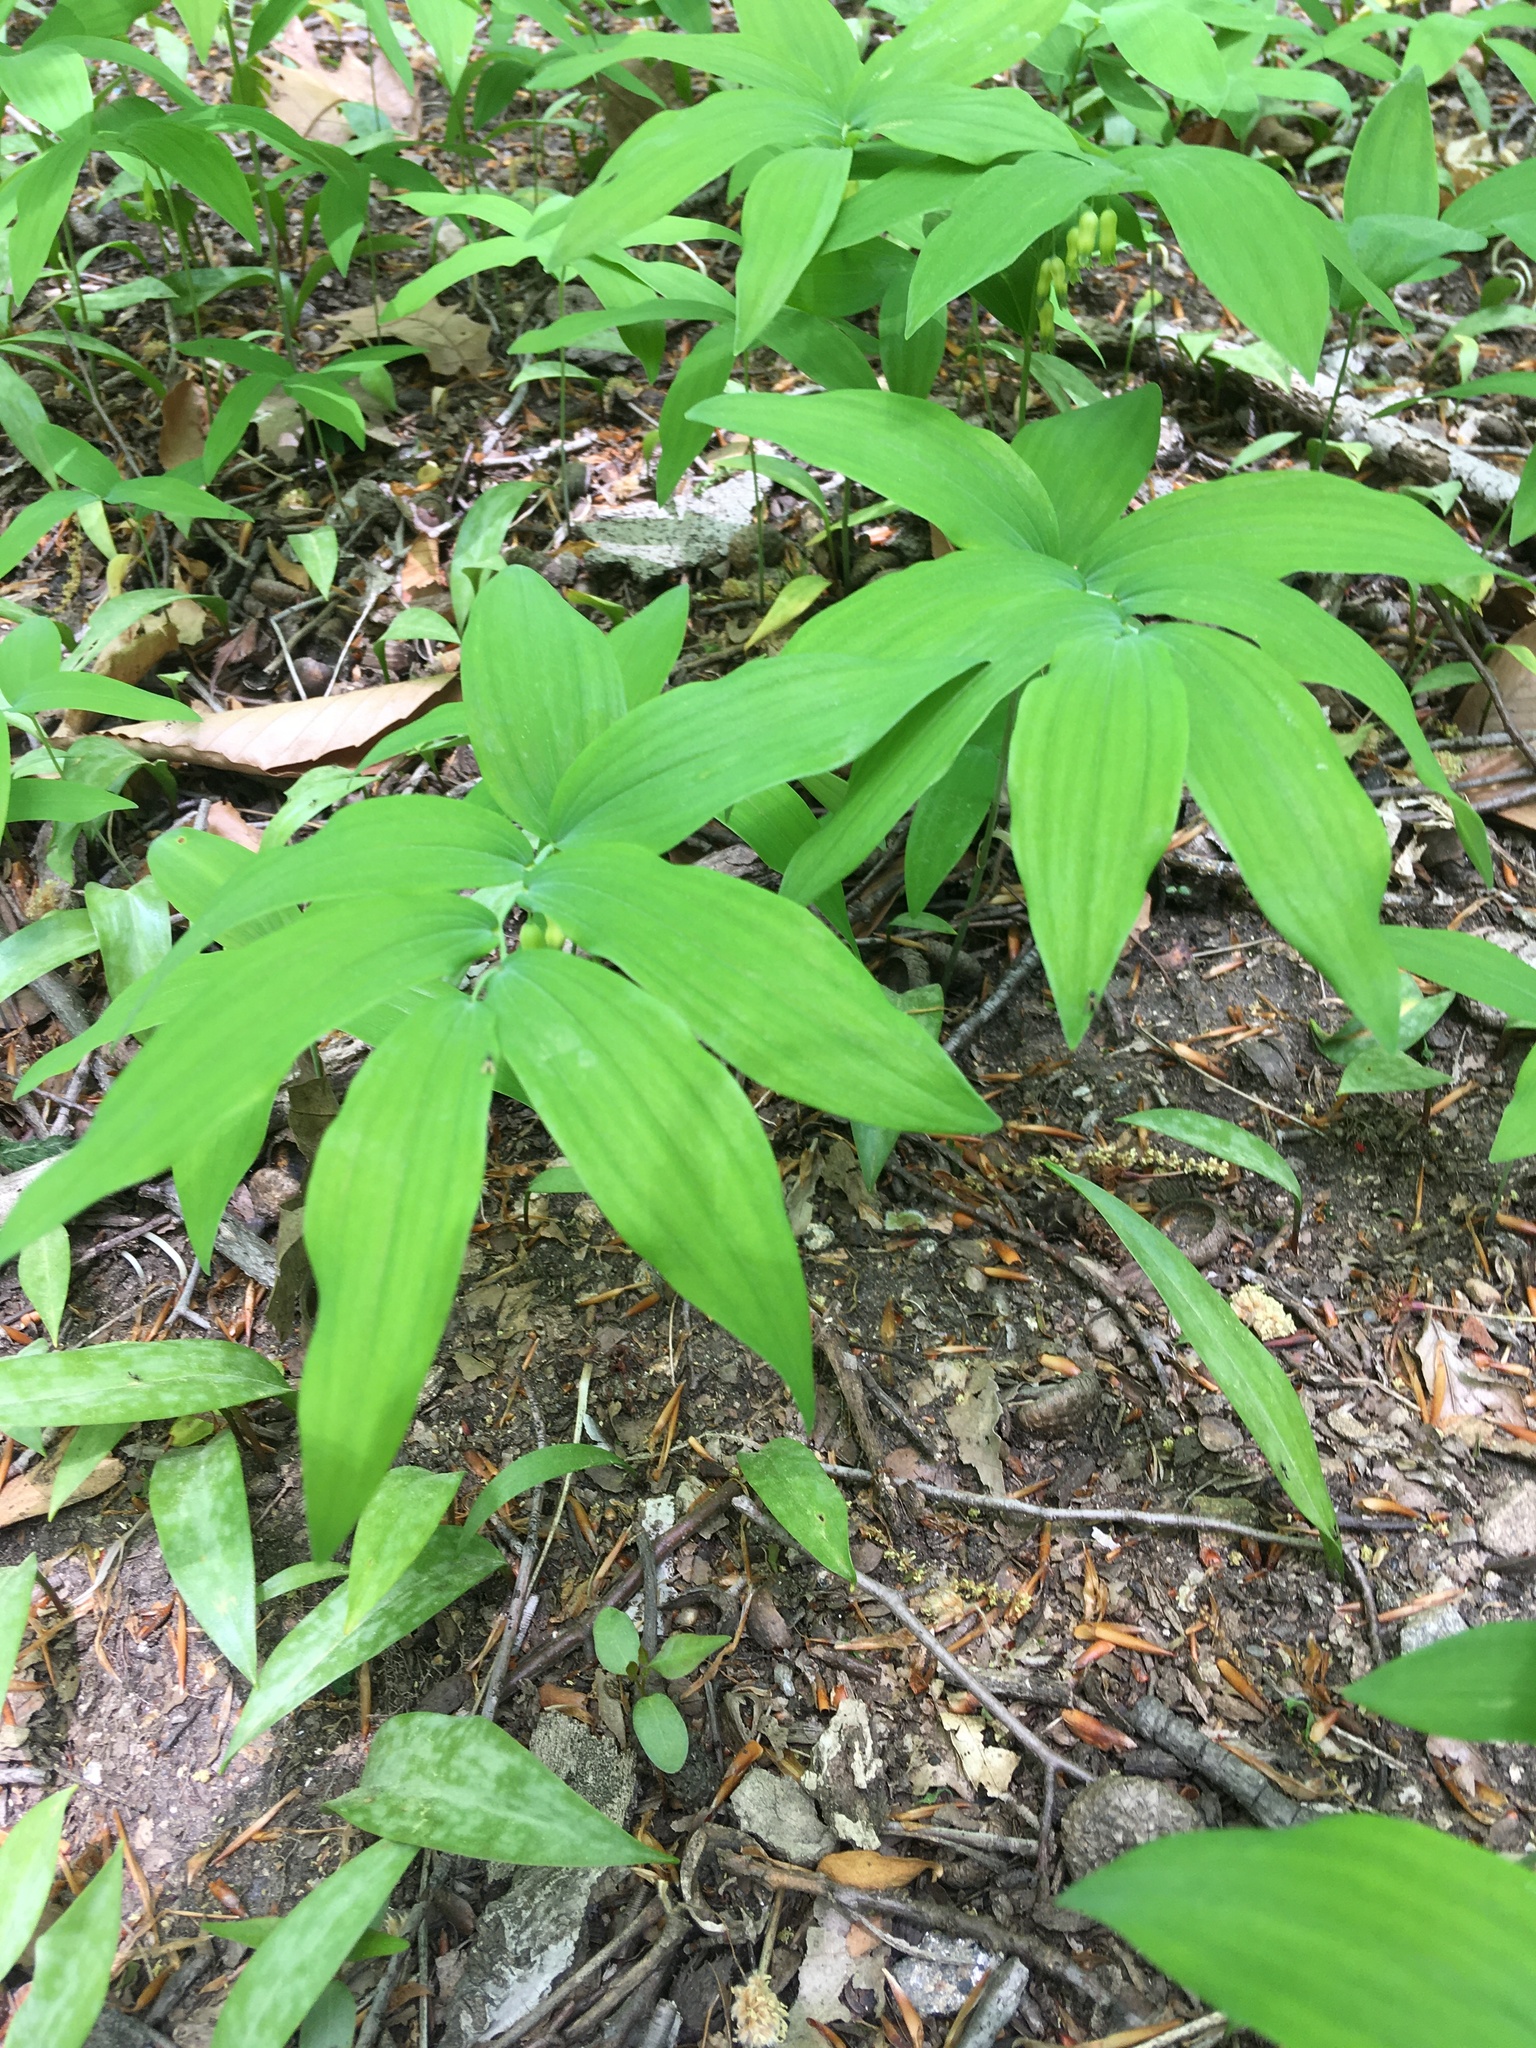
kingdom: Plantae
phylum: Tracheophyta
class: Liliopsida
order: Asparagales
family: Asparagaceae
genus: Polygonatum
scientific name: Polygonatum pubescens
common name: Downy solomon's seal
